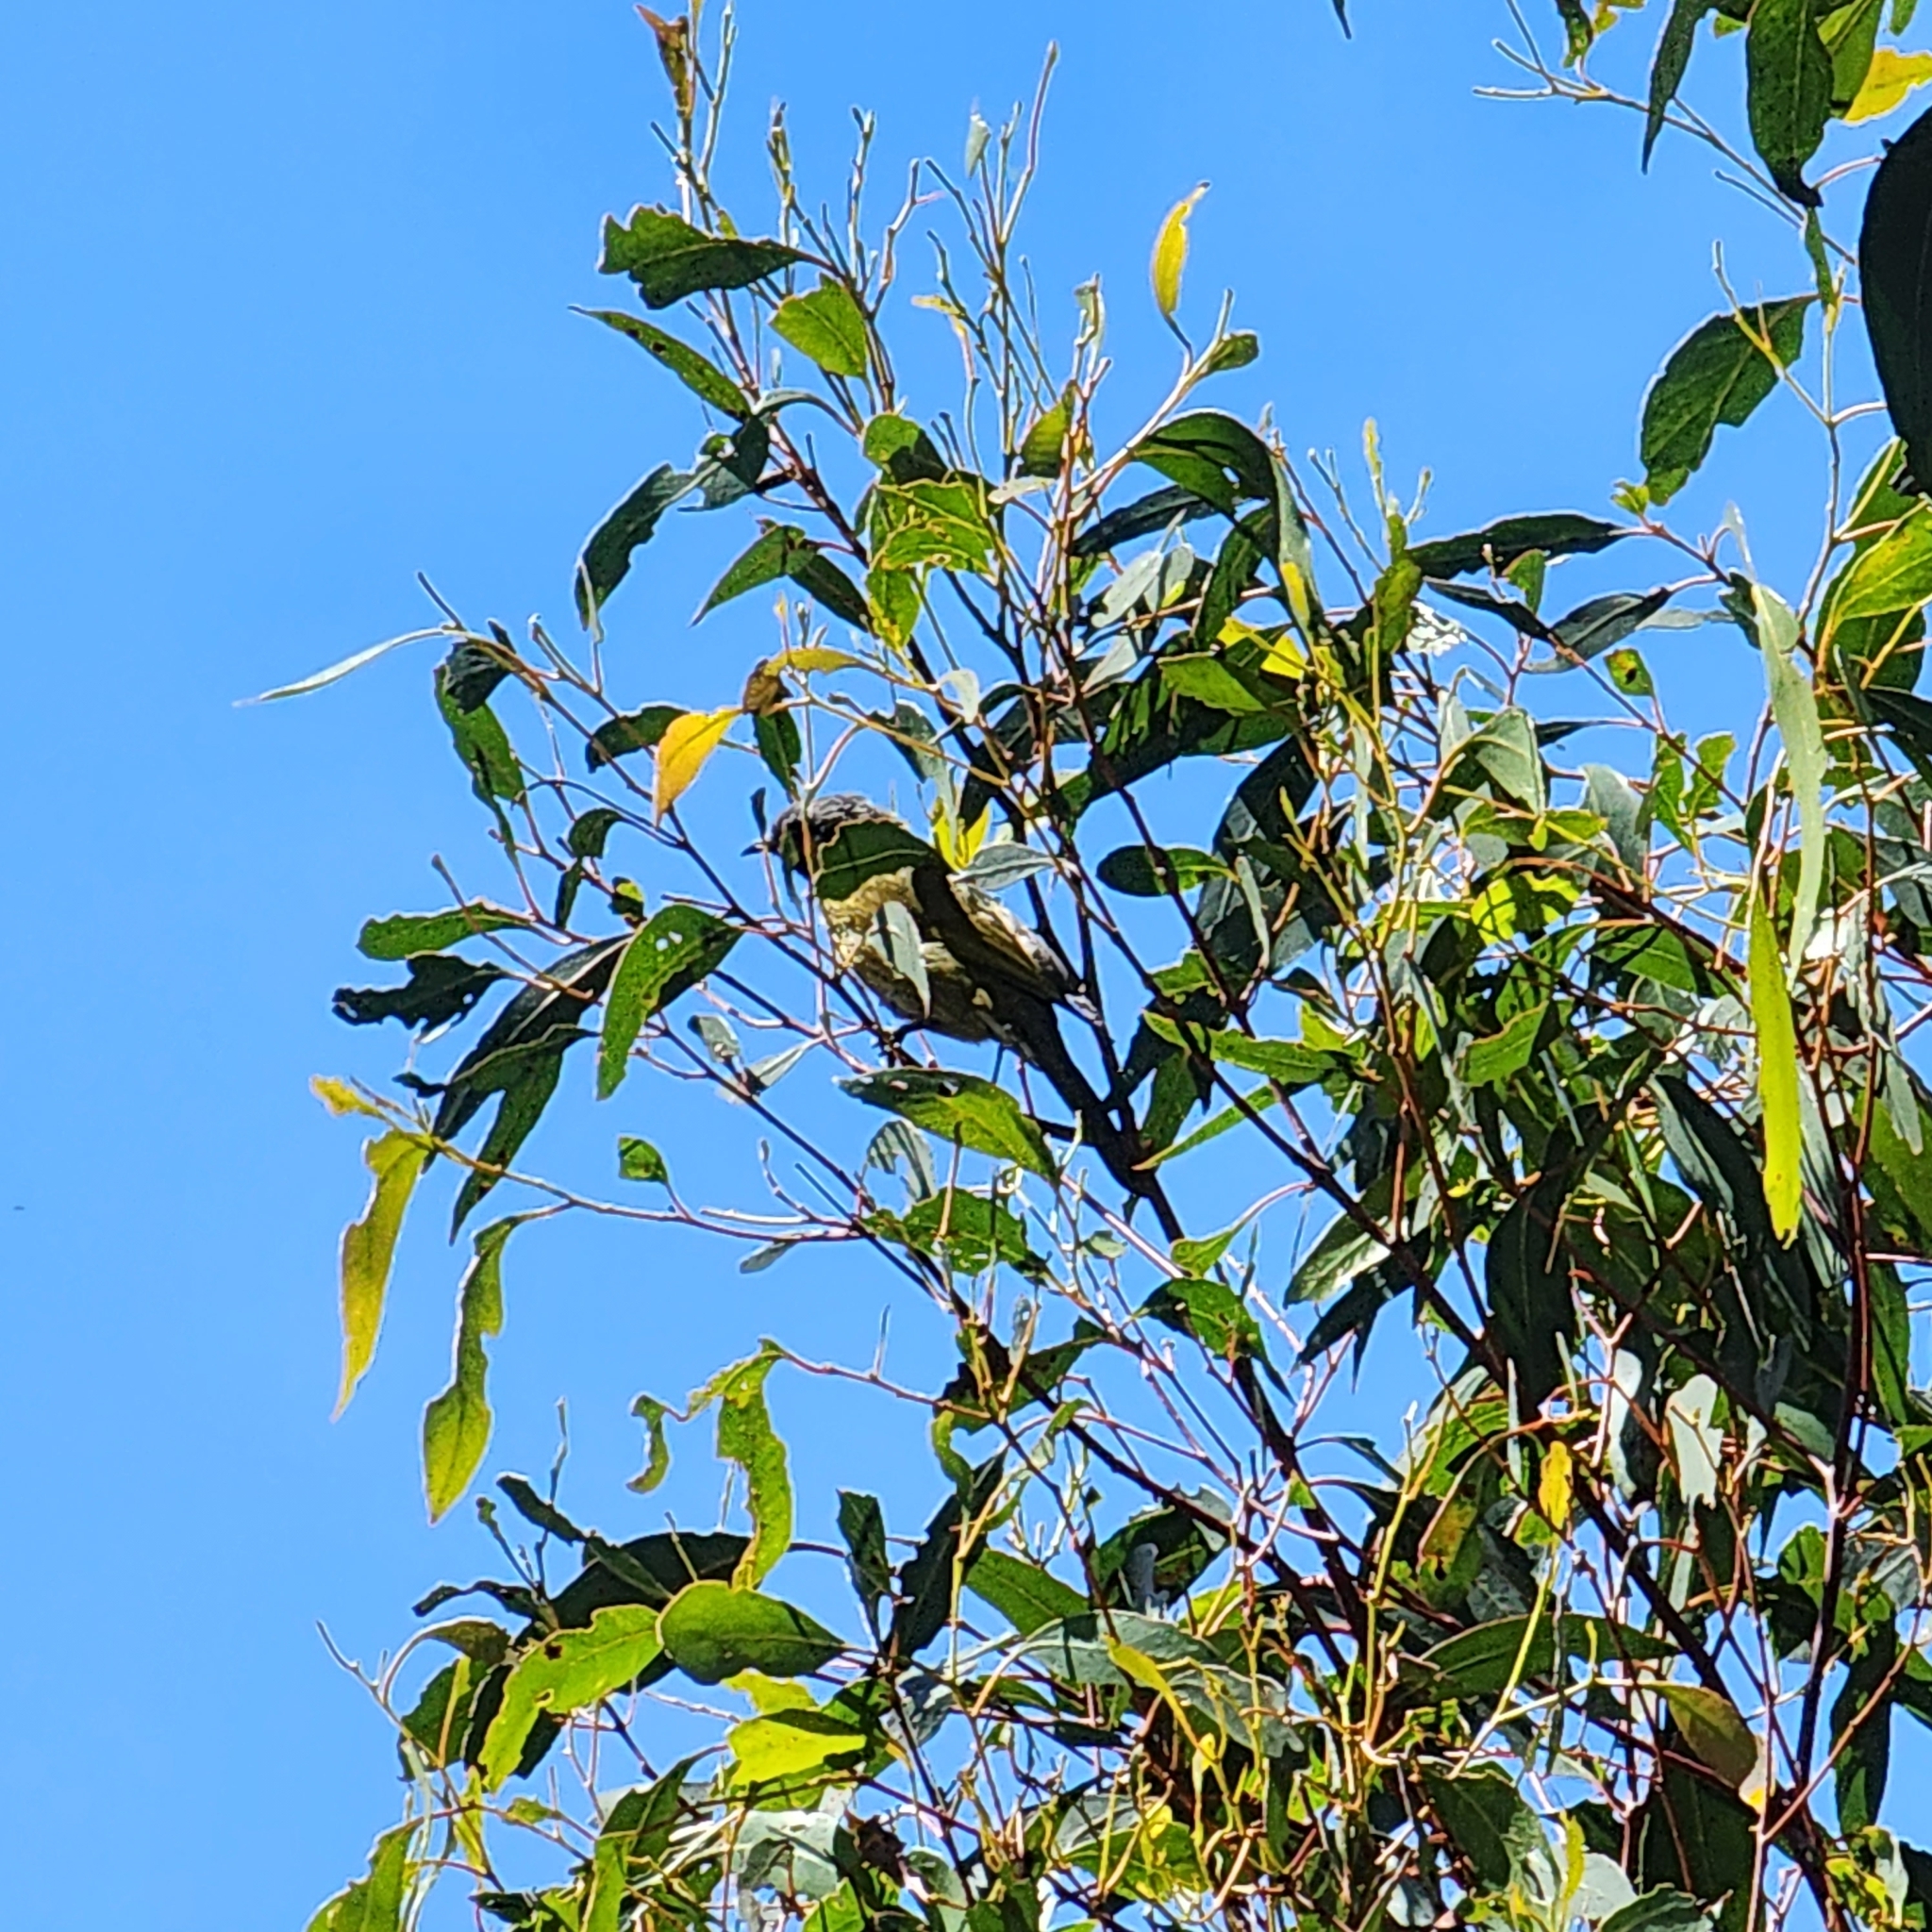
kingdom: Animalia
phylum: Chordata
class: Aves
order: Passeriformes
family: Meliphagidae
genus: Nesoptilotis
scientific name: Nesoptilotis leucotis
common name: White-eared honeyeater
